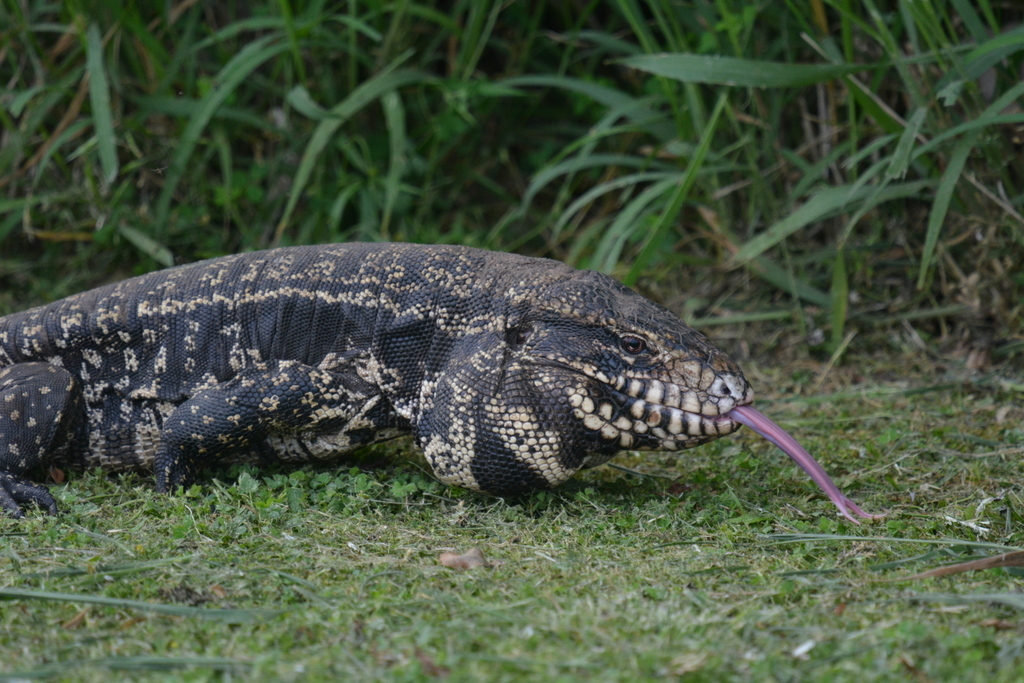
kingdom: Animalia
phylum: Chordata
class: Squamata
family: Teiidae
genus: Salvator
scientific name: Salvator merianae
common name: Argentine black and white tegu
